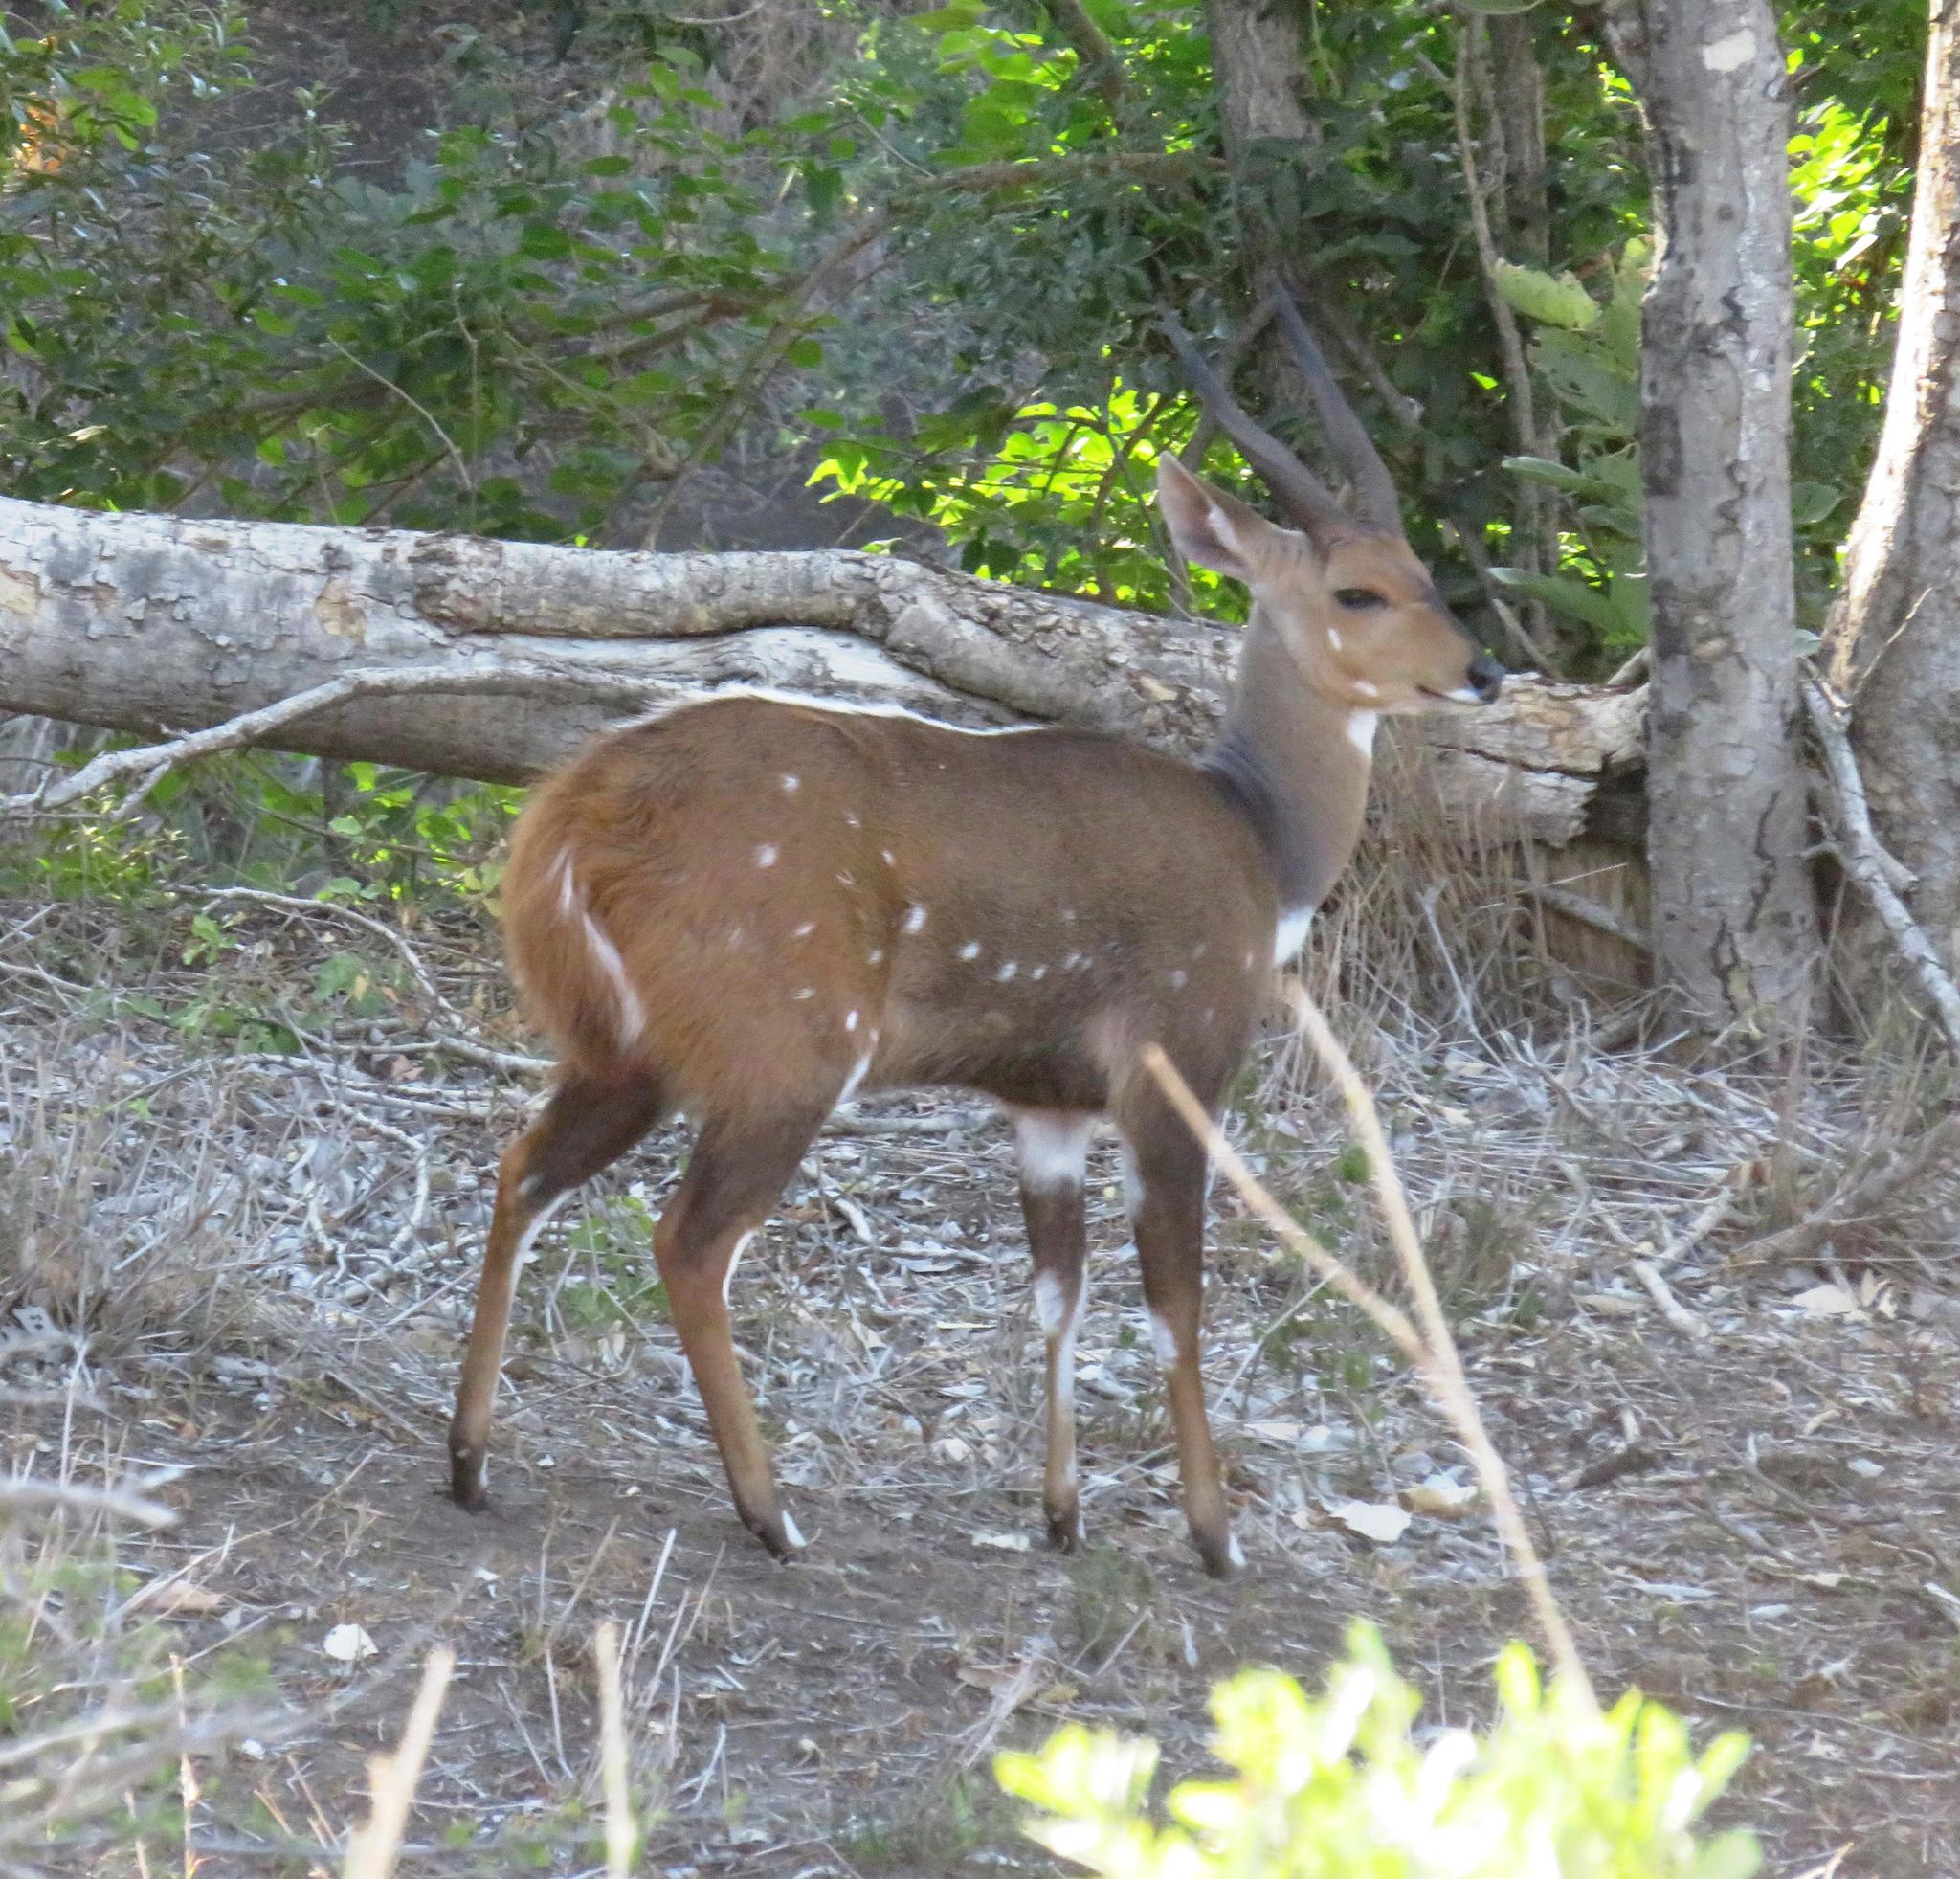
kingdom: Animalia
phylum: Chordata
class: Mammalia
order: Artiodactyla
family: Bovidae
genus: Tragelaphus
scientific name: Tragelaphus scriptus
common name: Bushbuck
